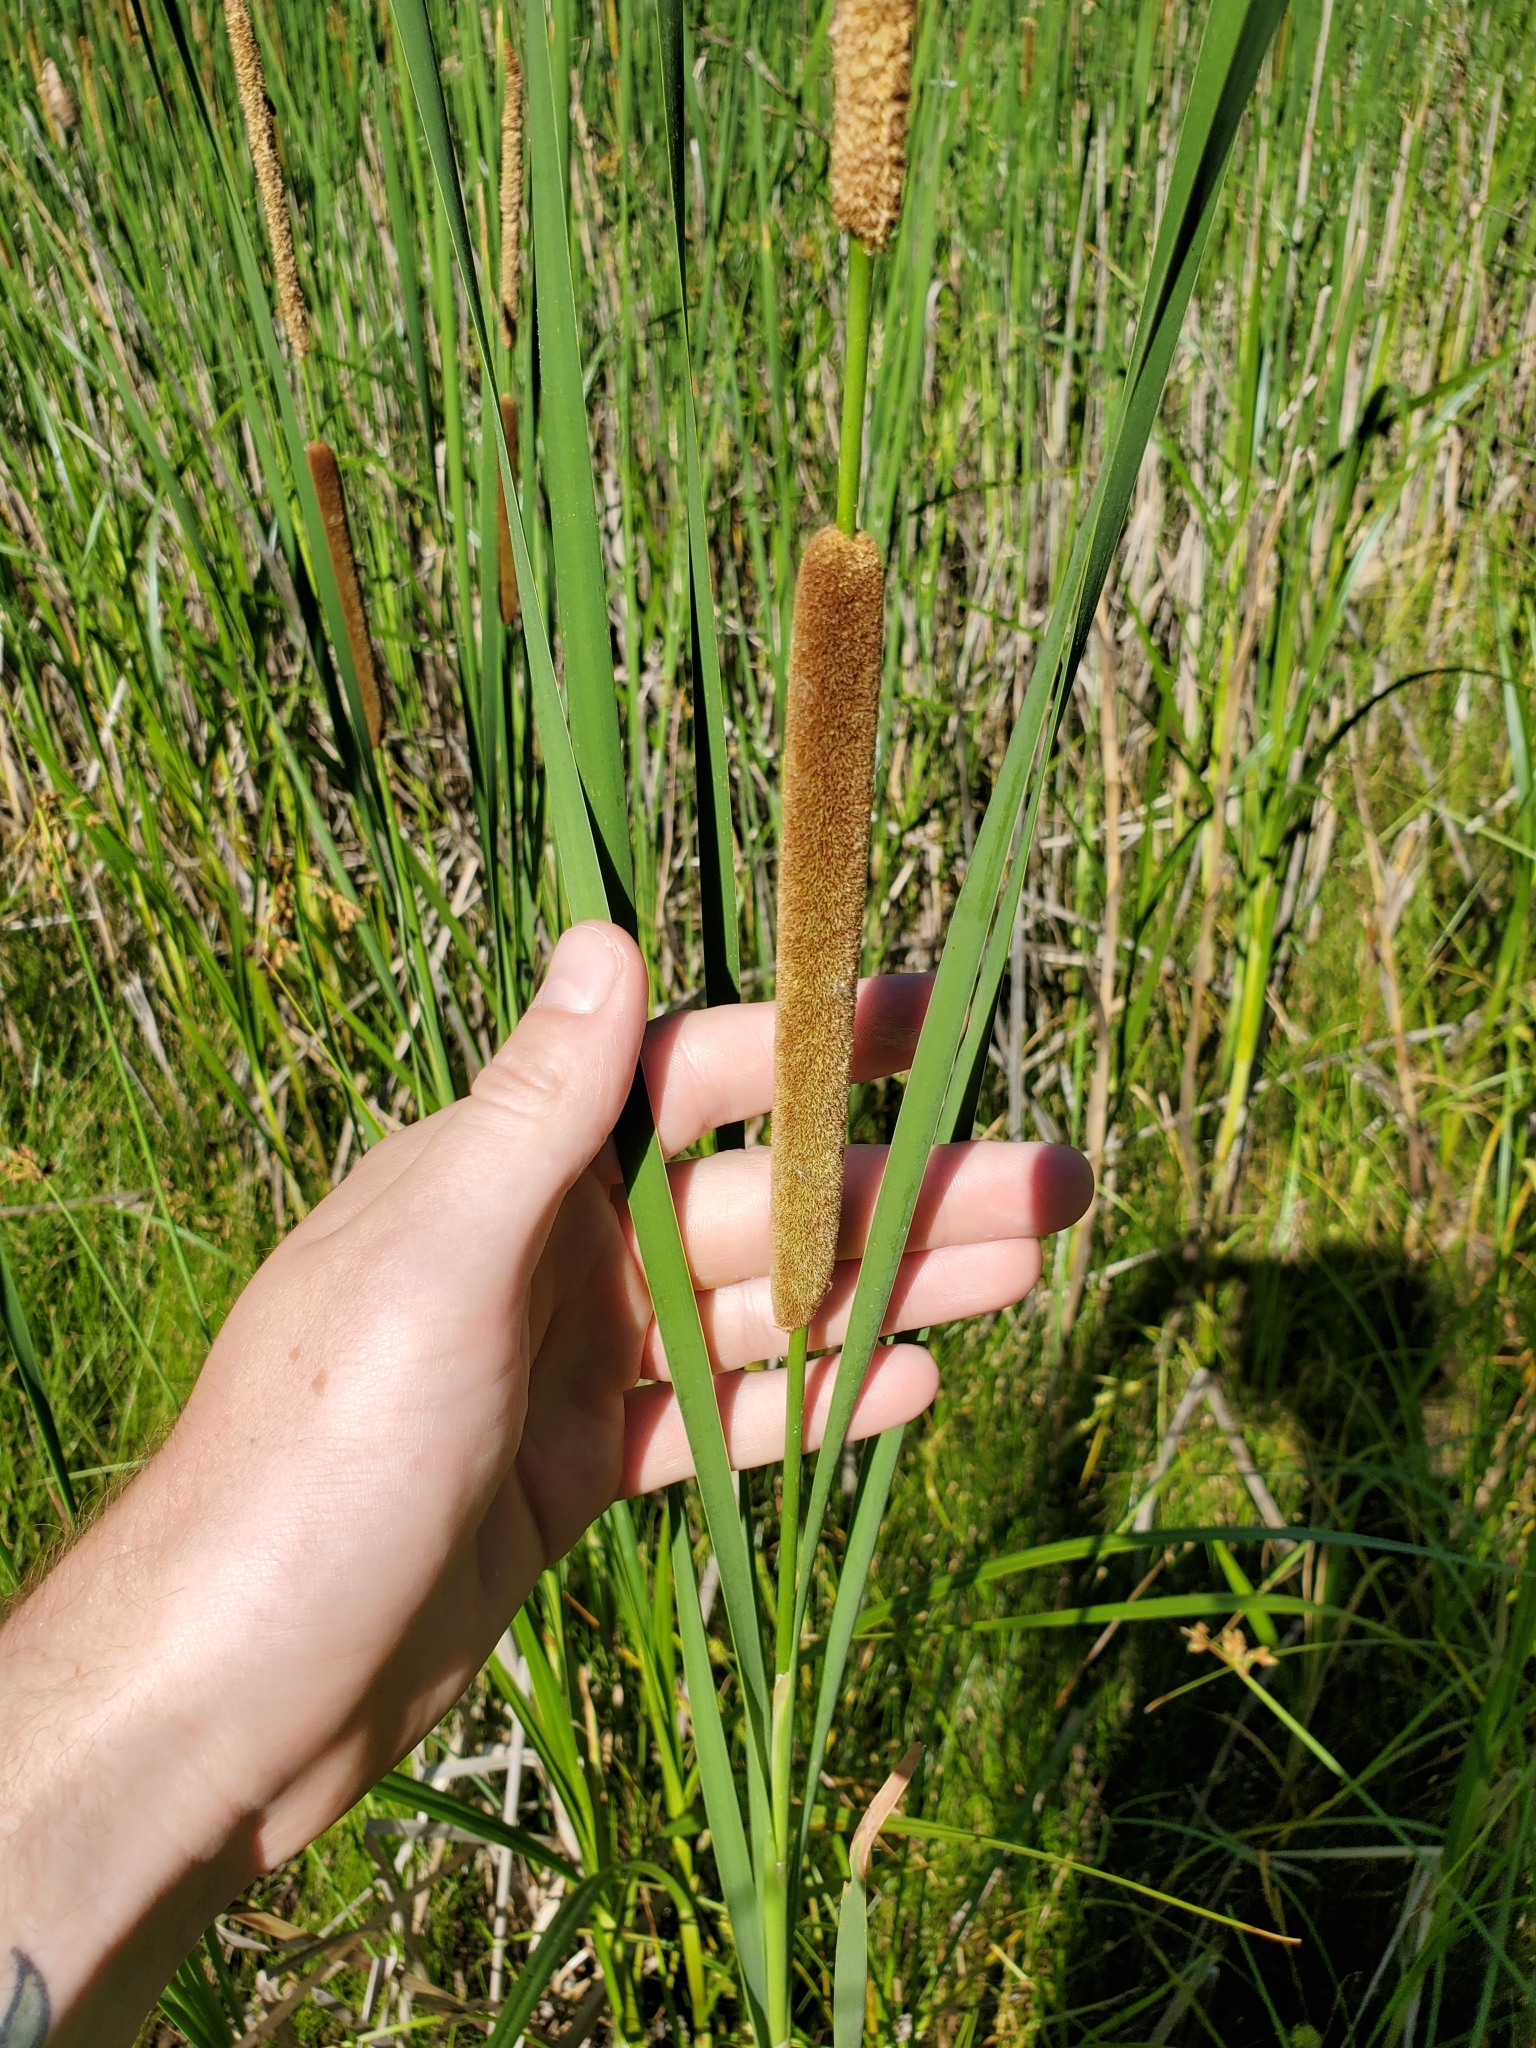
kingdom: Plantae
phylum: Tracheophyta
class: Liliopsida
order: Poales
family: Typhaceae
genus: Typha
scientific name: Typha angustifolia
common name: Lesser bulrush
